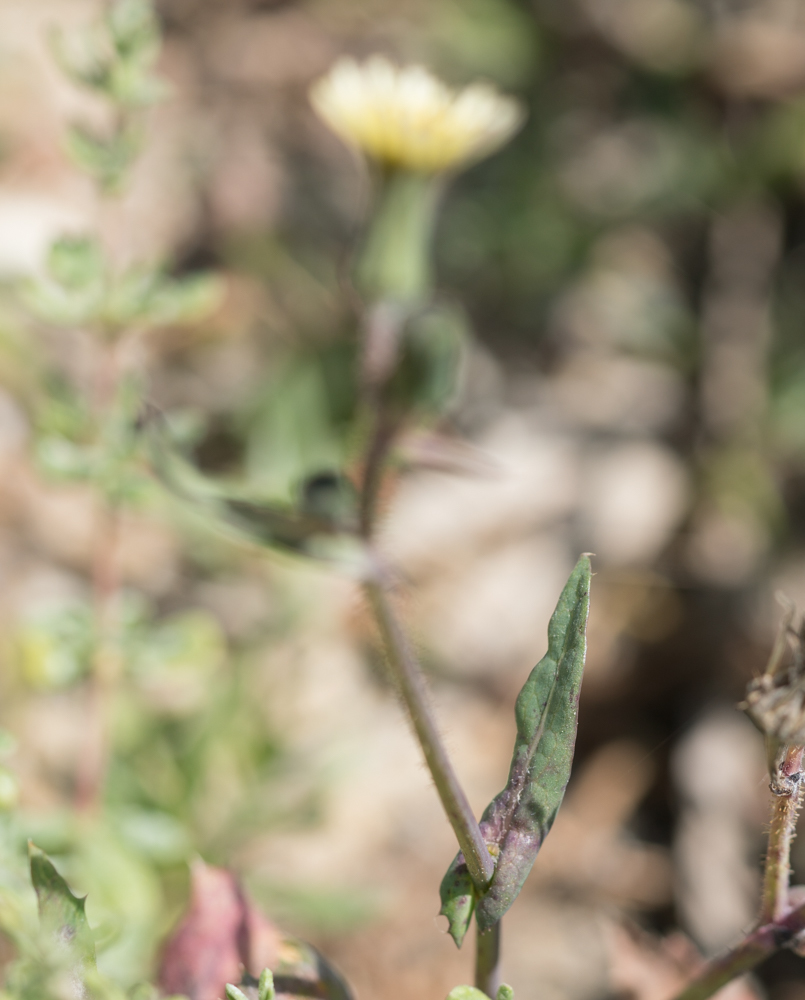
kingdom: Plantae
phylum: Tracheophyta
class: Magnoliopsida
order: Asterales
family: Asteraceae
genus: Sonchus
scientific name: Sonchus oleraceus
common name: Common sowthistle
